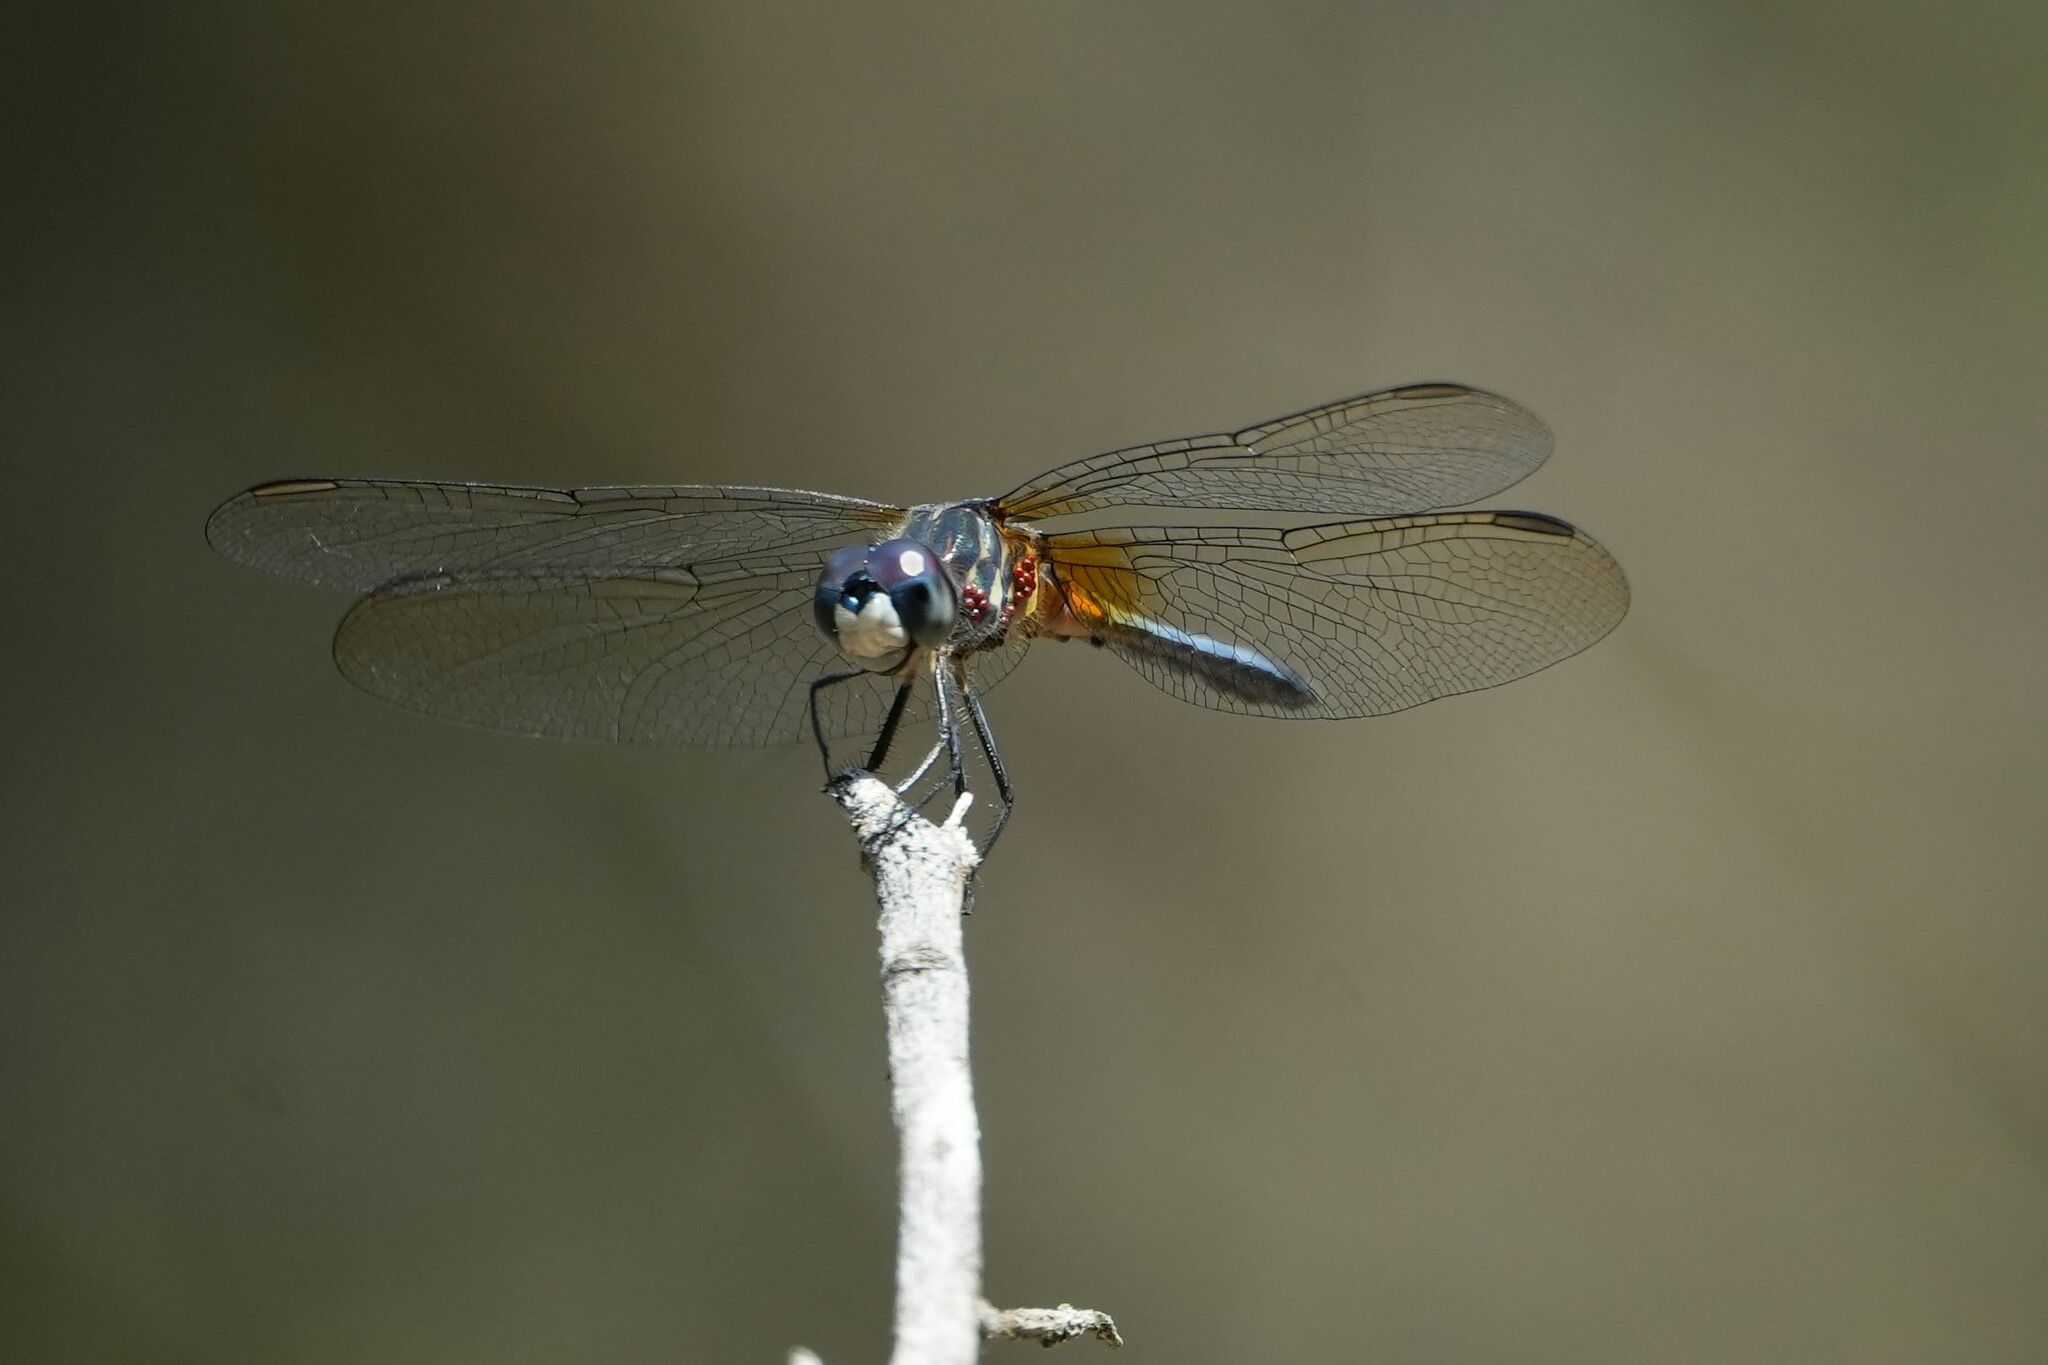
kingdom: Animalia
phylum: Arthropoda
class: Insecta
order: Odonata
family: Libellulidae
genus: Pachydiplax
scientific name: Pachydiplax longipennis
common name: Blue dasher
